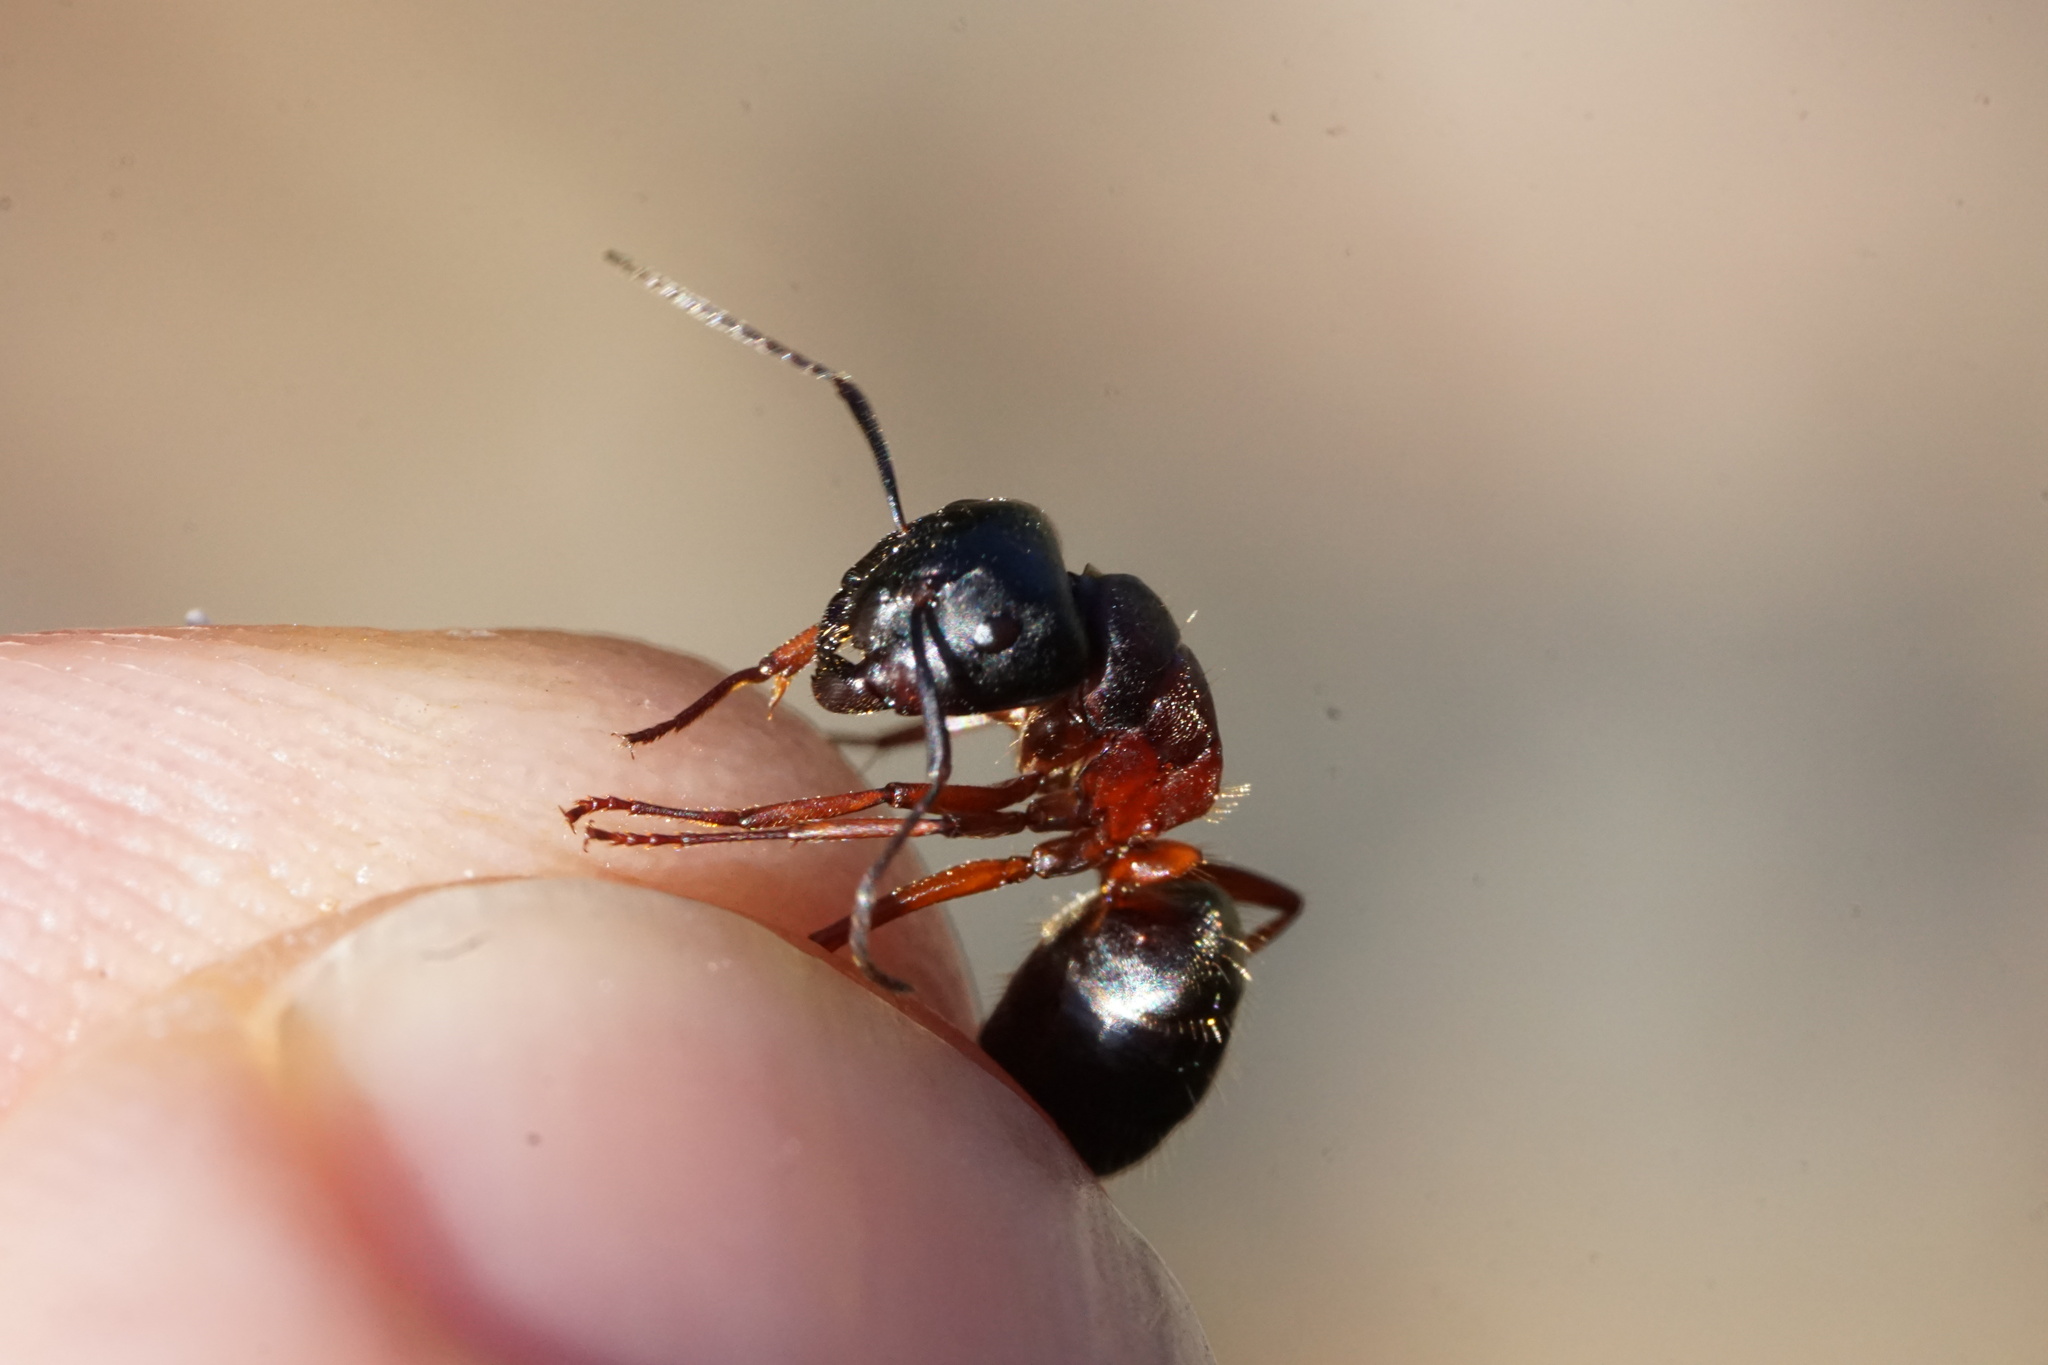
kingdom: Animalia
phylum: Arthropoda
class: Insecta
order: Hymenoptera
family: Formicidae
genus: Camponotus
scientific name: Camponotus herculeanus
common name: Hercules ant
